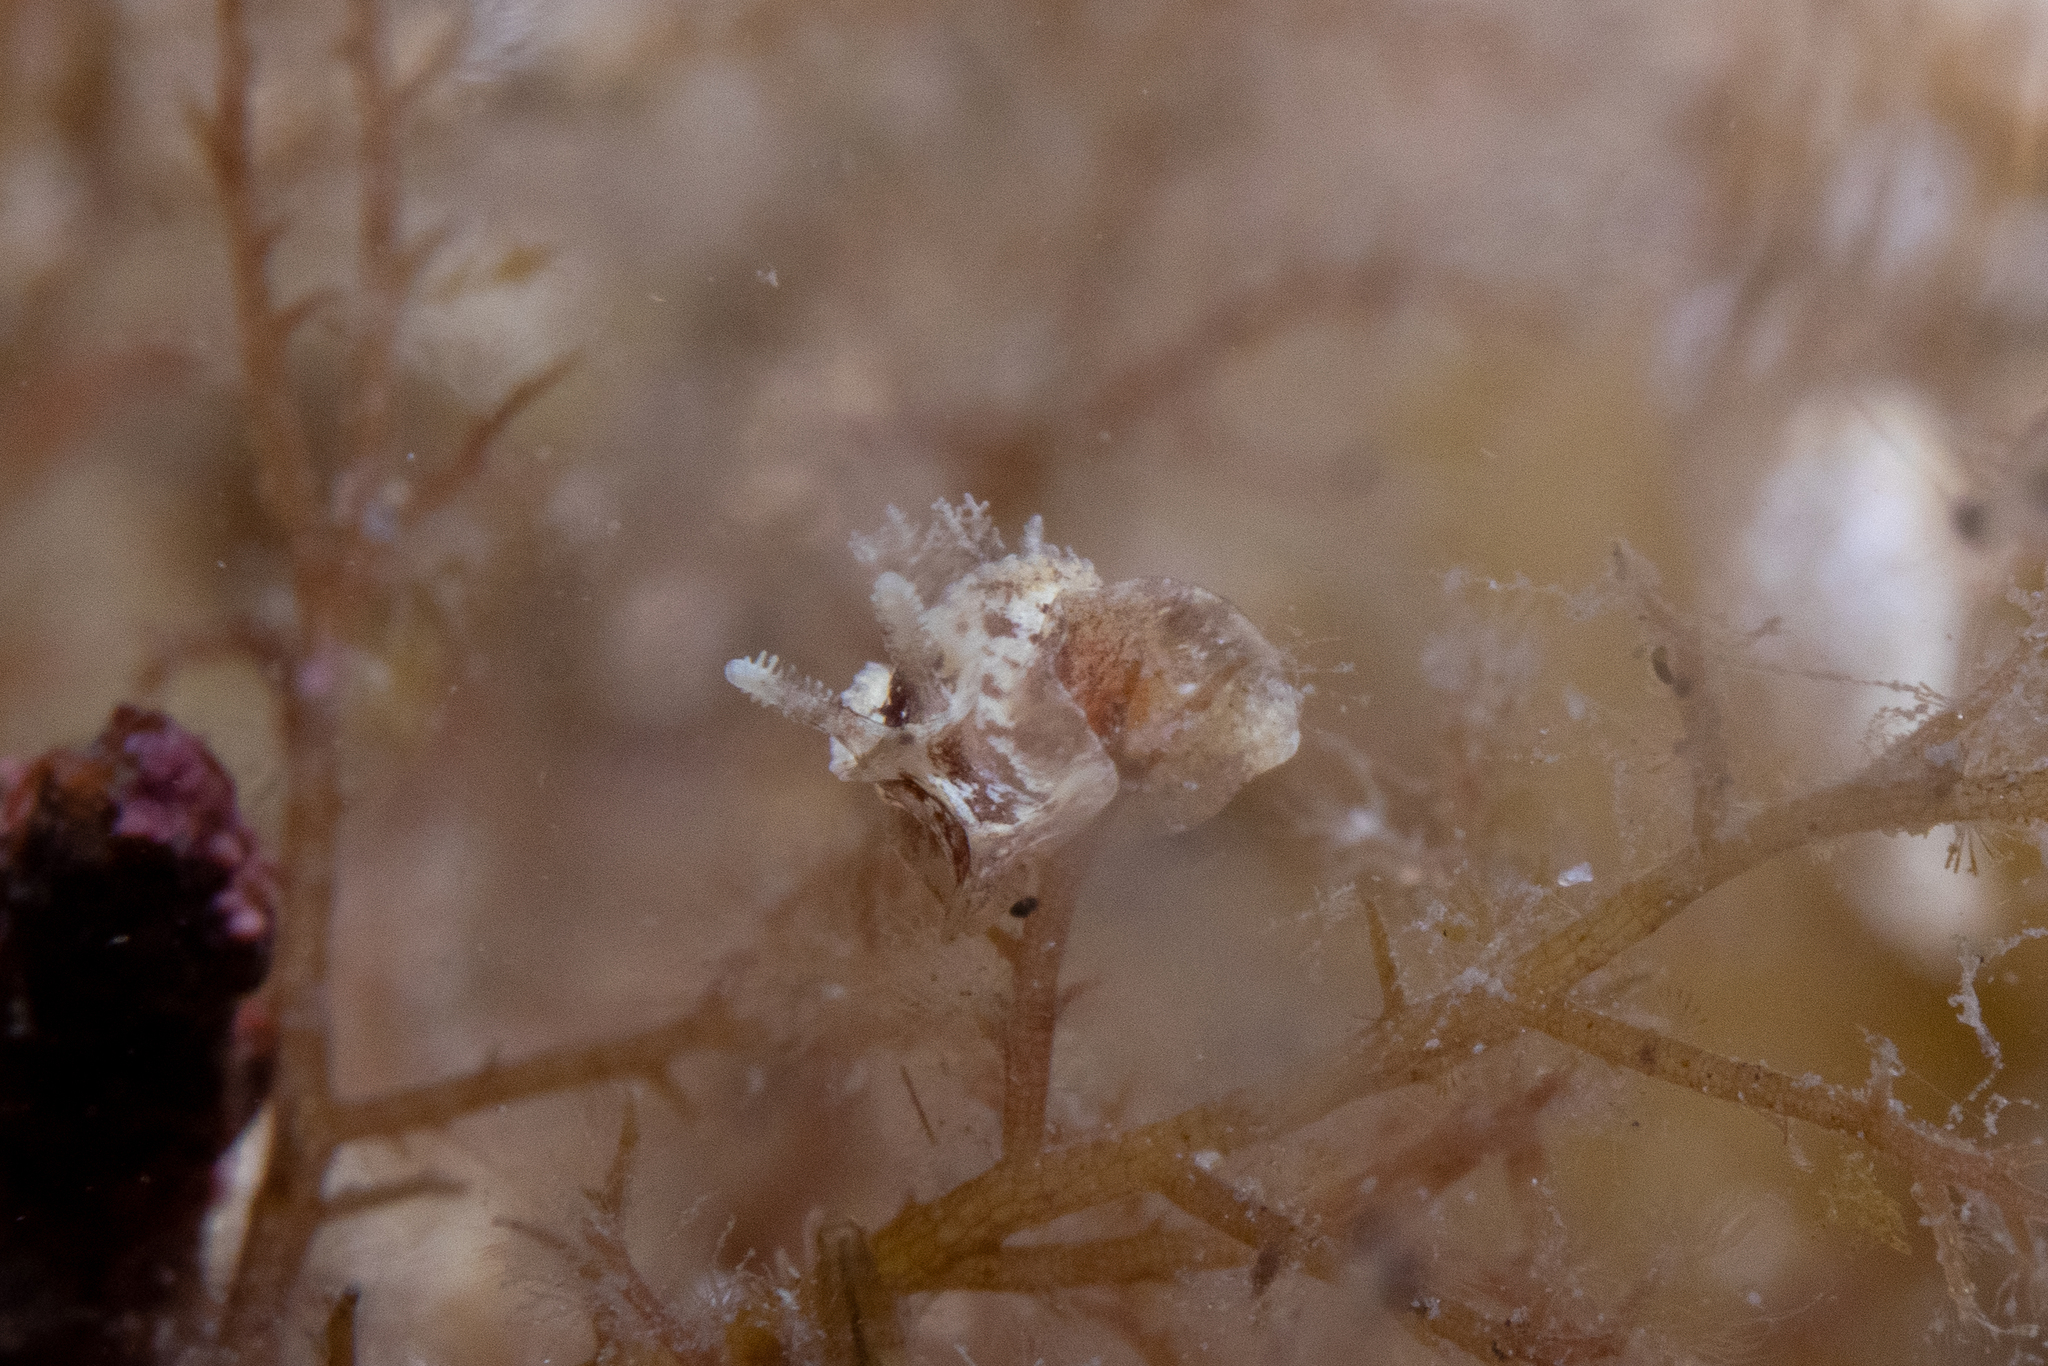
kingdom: Animalia
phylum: Mollusca
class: Gastropoda
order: Nudibranchia
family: Goniodorididae
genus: Pelagella
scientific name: Pelagella
